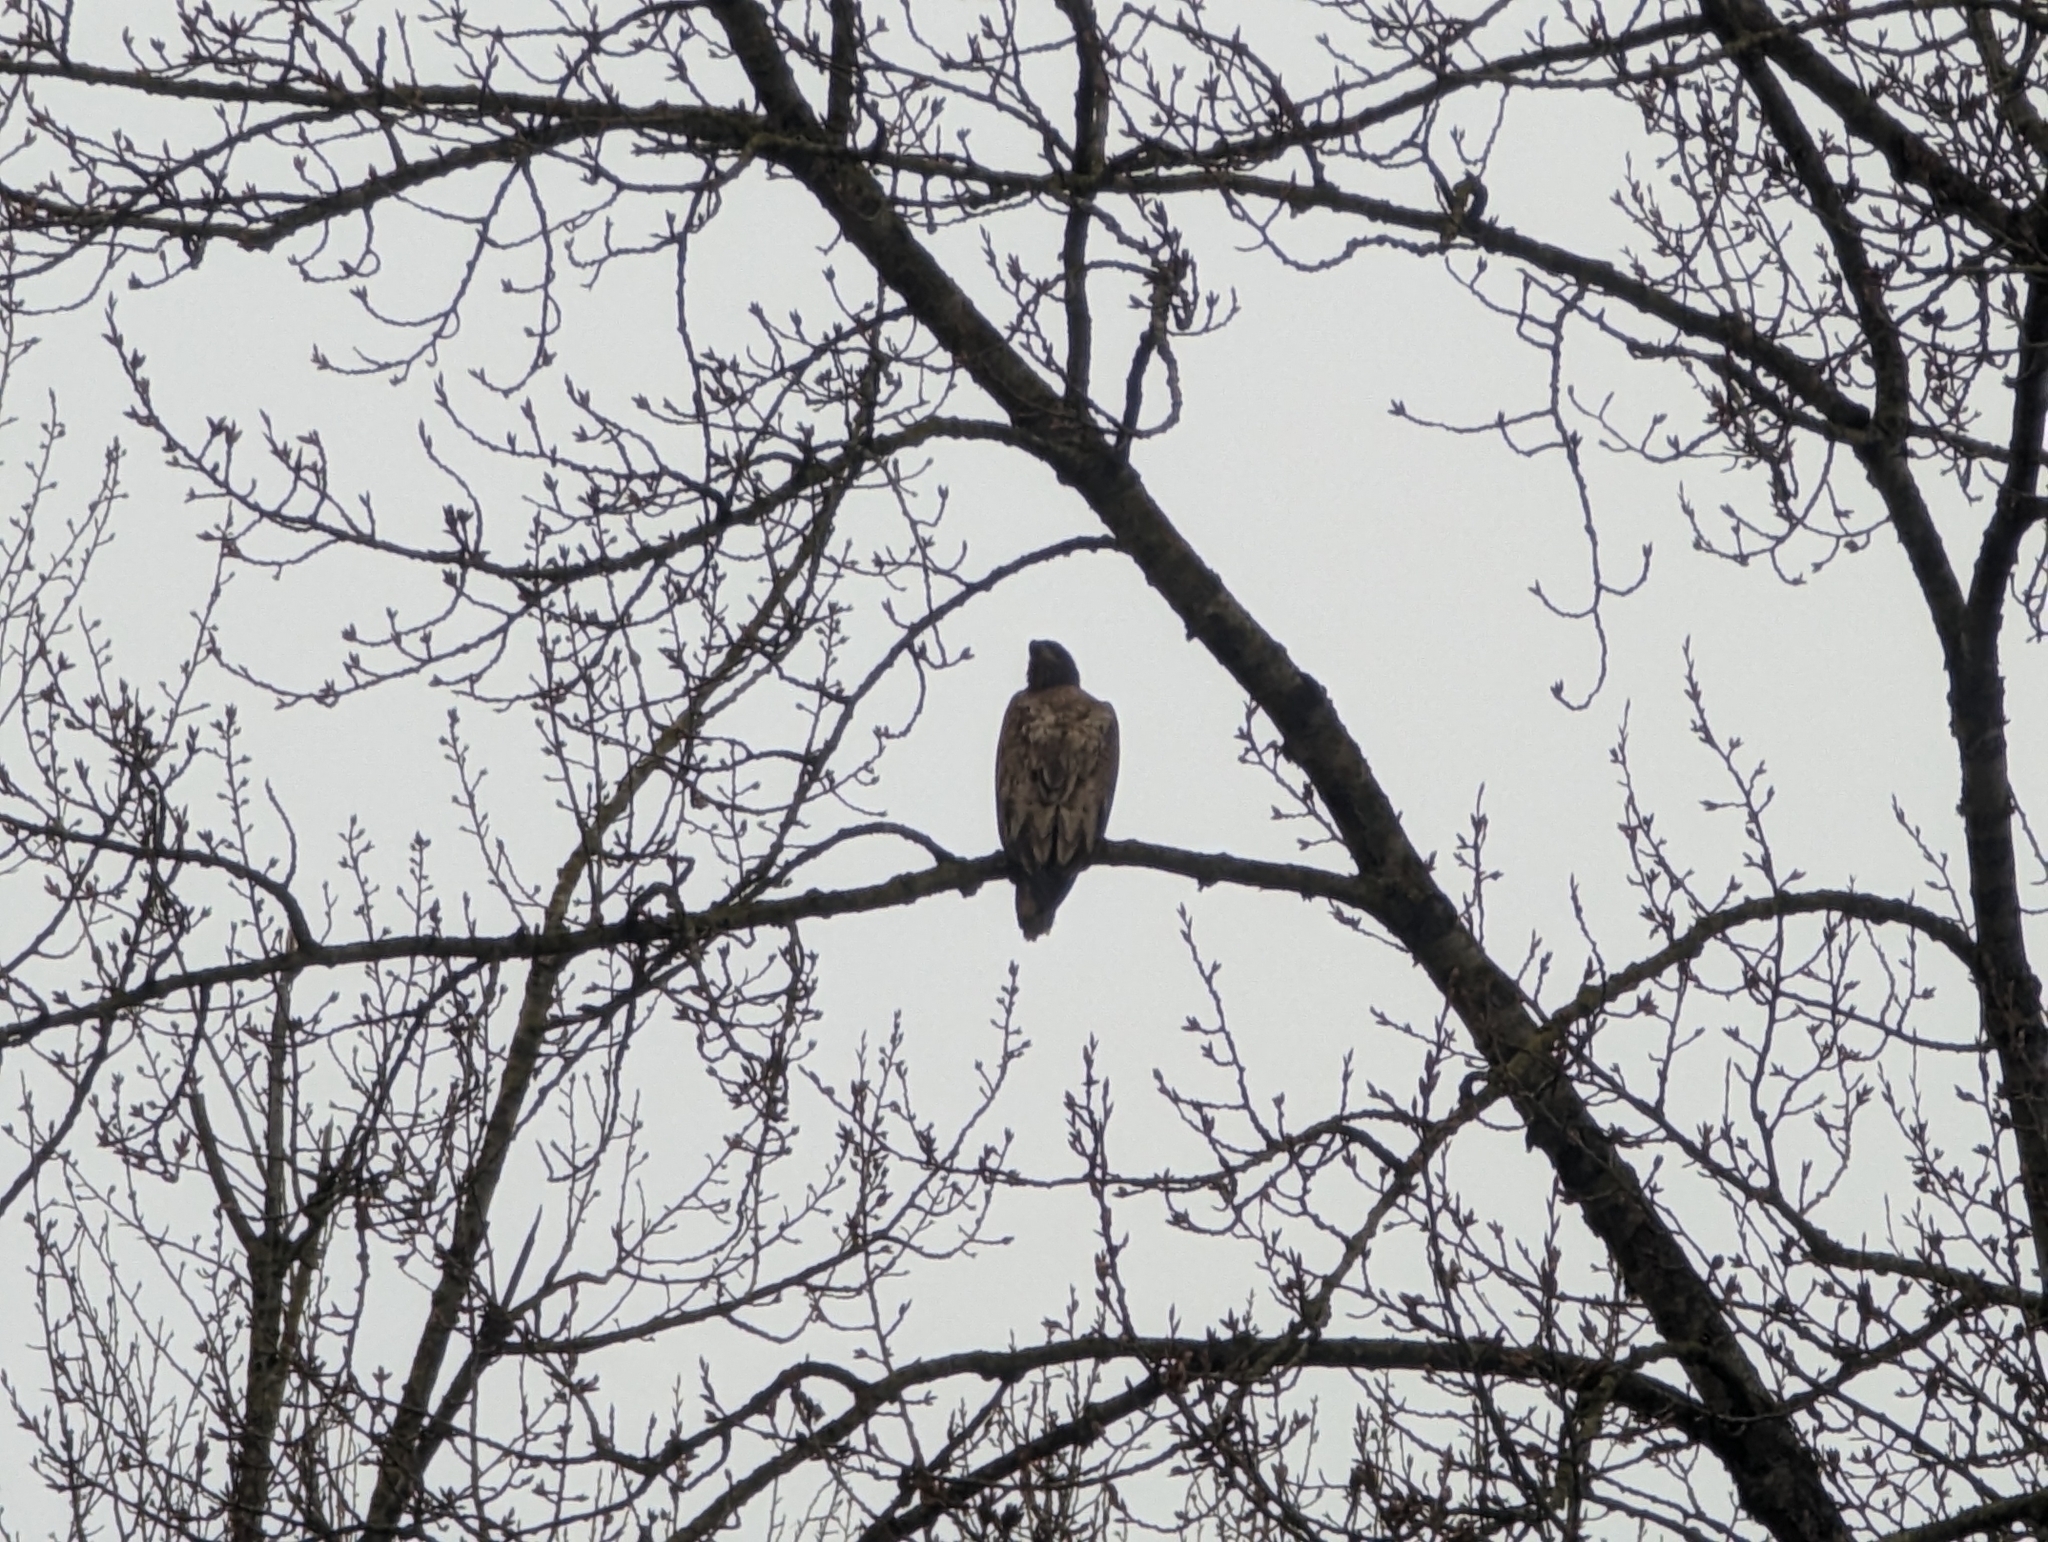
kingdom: Animalia
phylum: Chordata
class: Aves
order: Accipitriformes
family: Accipitridae
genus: Haliaeetus
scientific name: Haliaeetus leucocephalus
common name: Bald eagle
